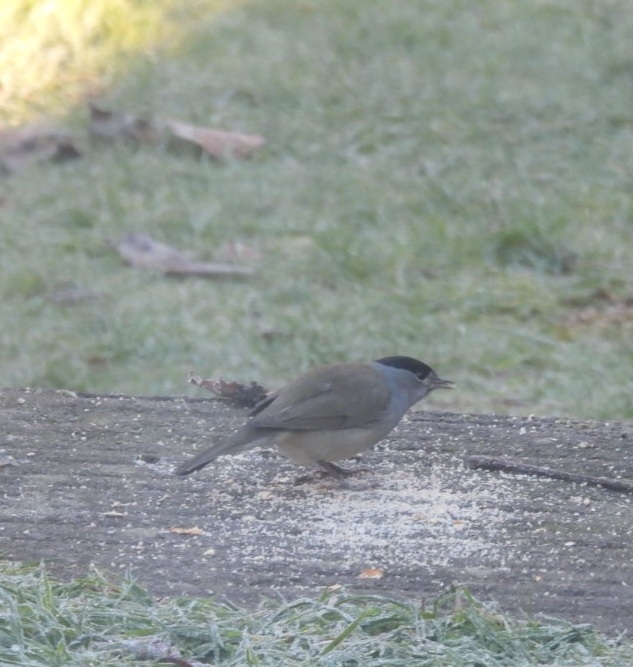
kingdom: Animalia
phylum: Chordata
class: Aves
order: Passeriformes
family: Sylviidae
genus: Sylvia
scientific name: Sylvia atricapilla
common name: Eurasian blackcap
